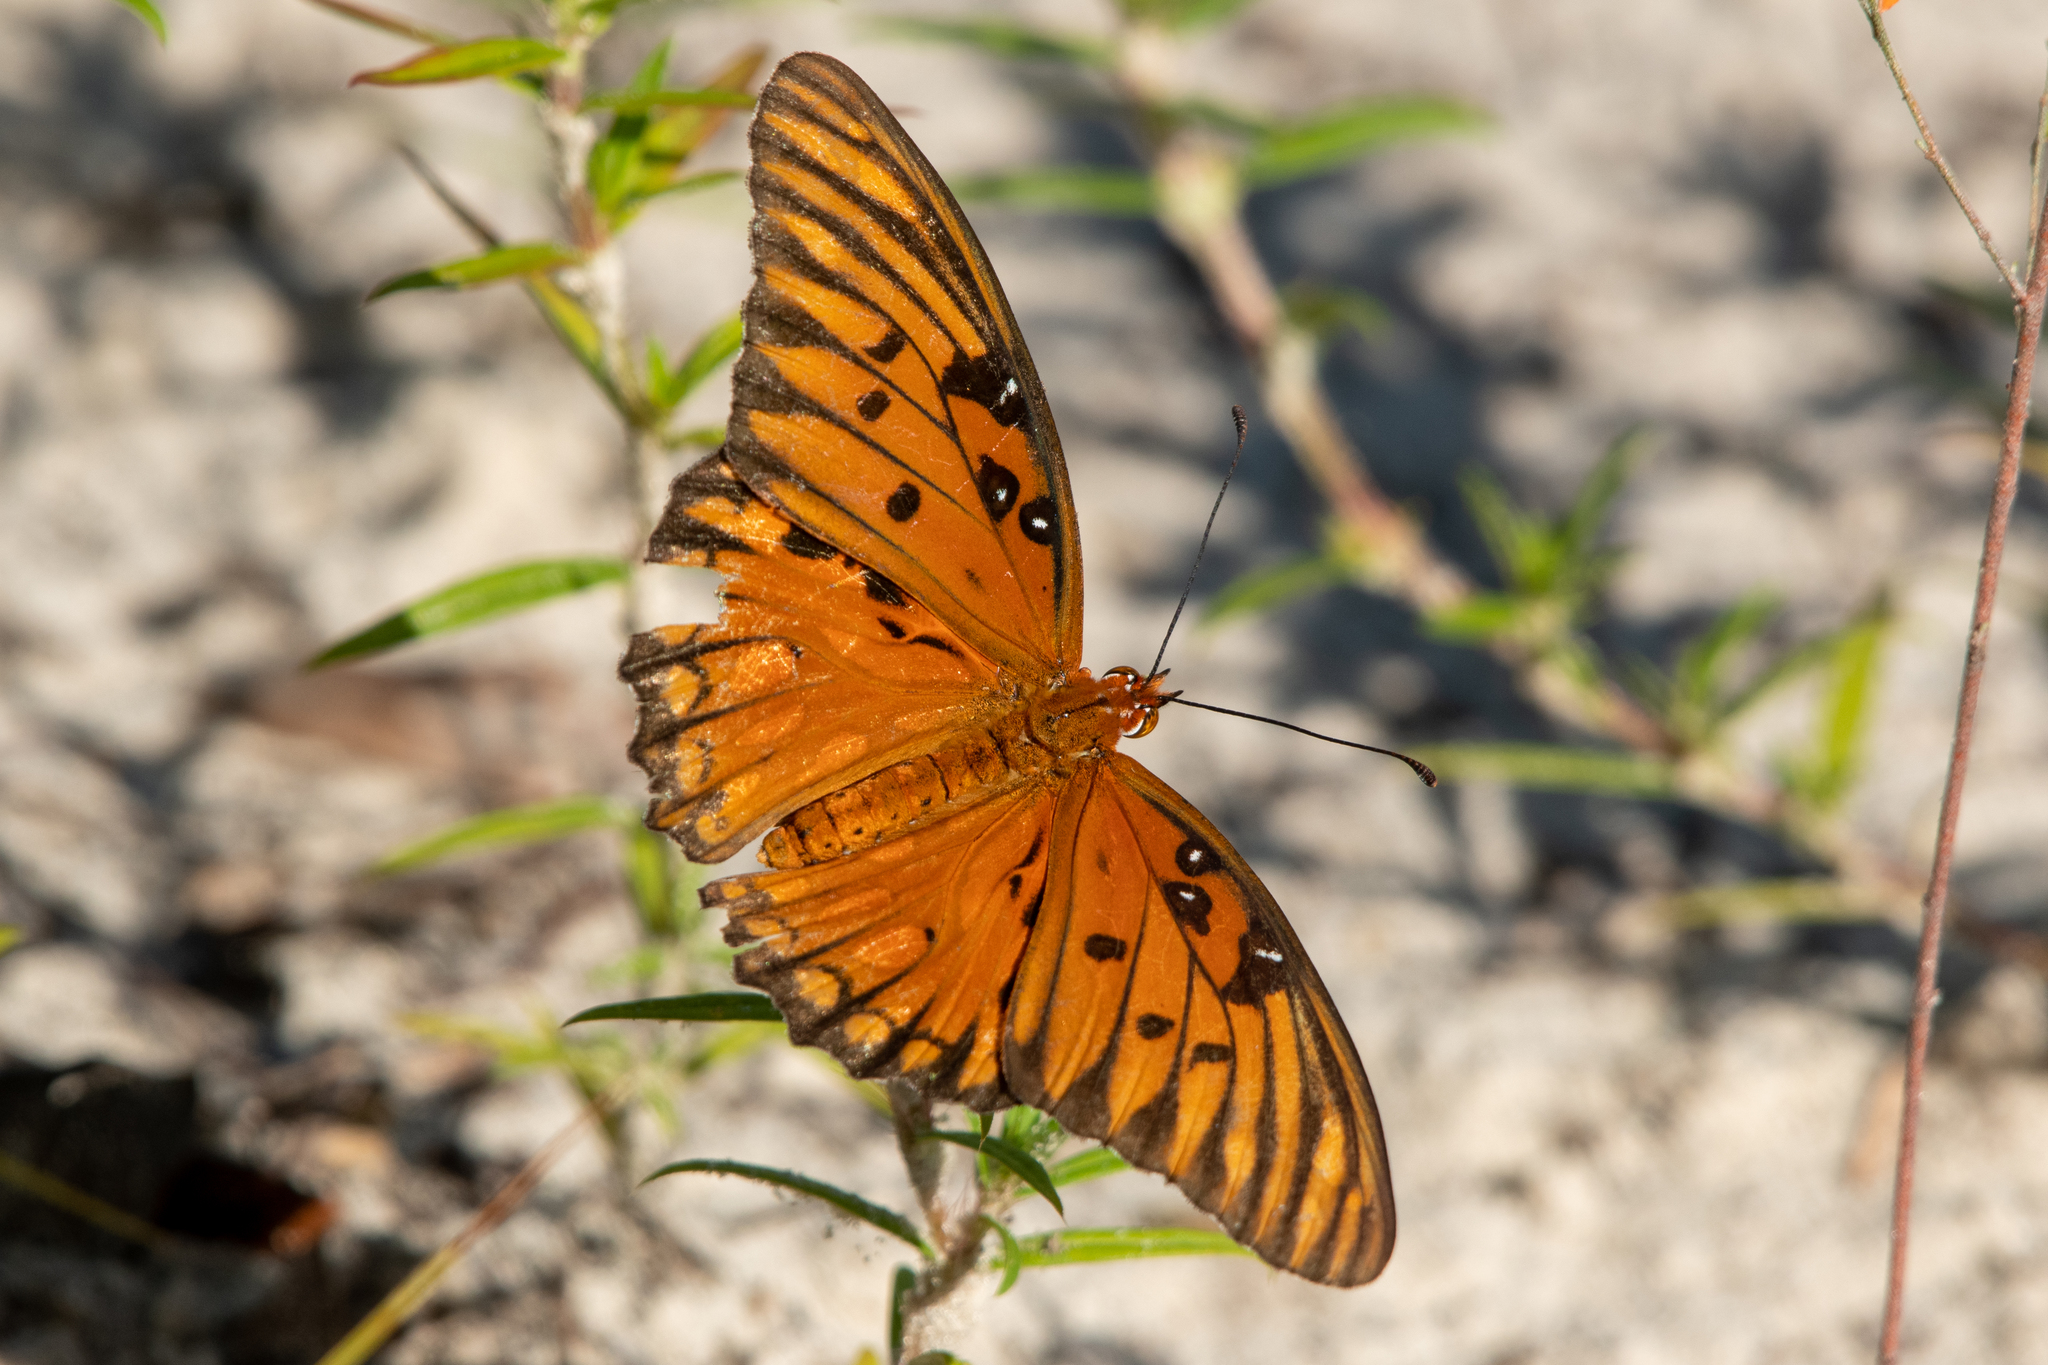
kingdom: Animalia
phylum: Arthropoda
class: Insecta
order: Lepidoptera
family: Nymphalidae
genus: Dione
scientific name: Dione vanillae
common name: Gulf fritillary
